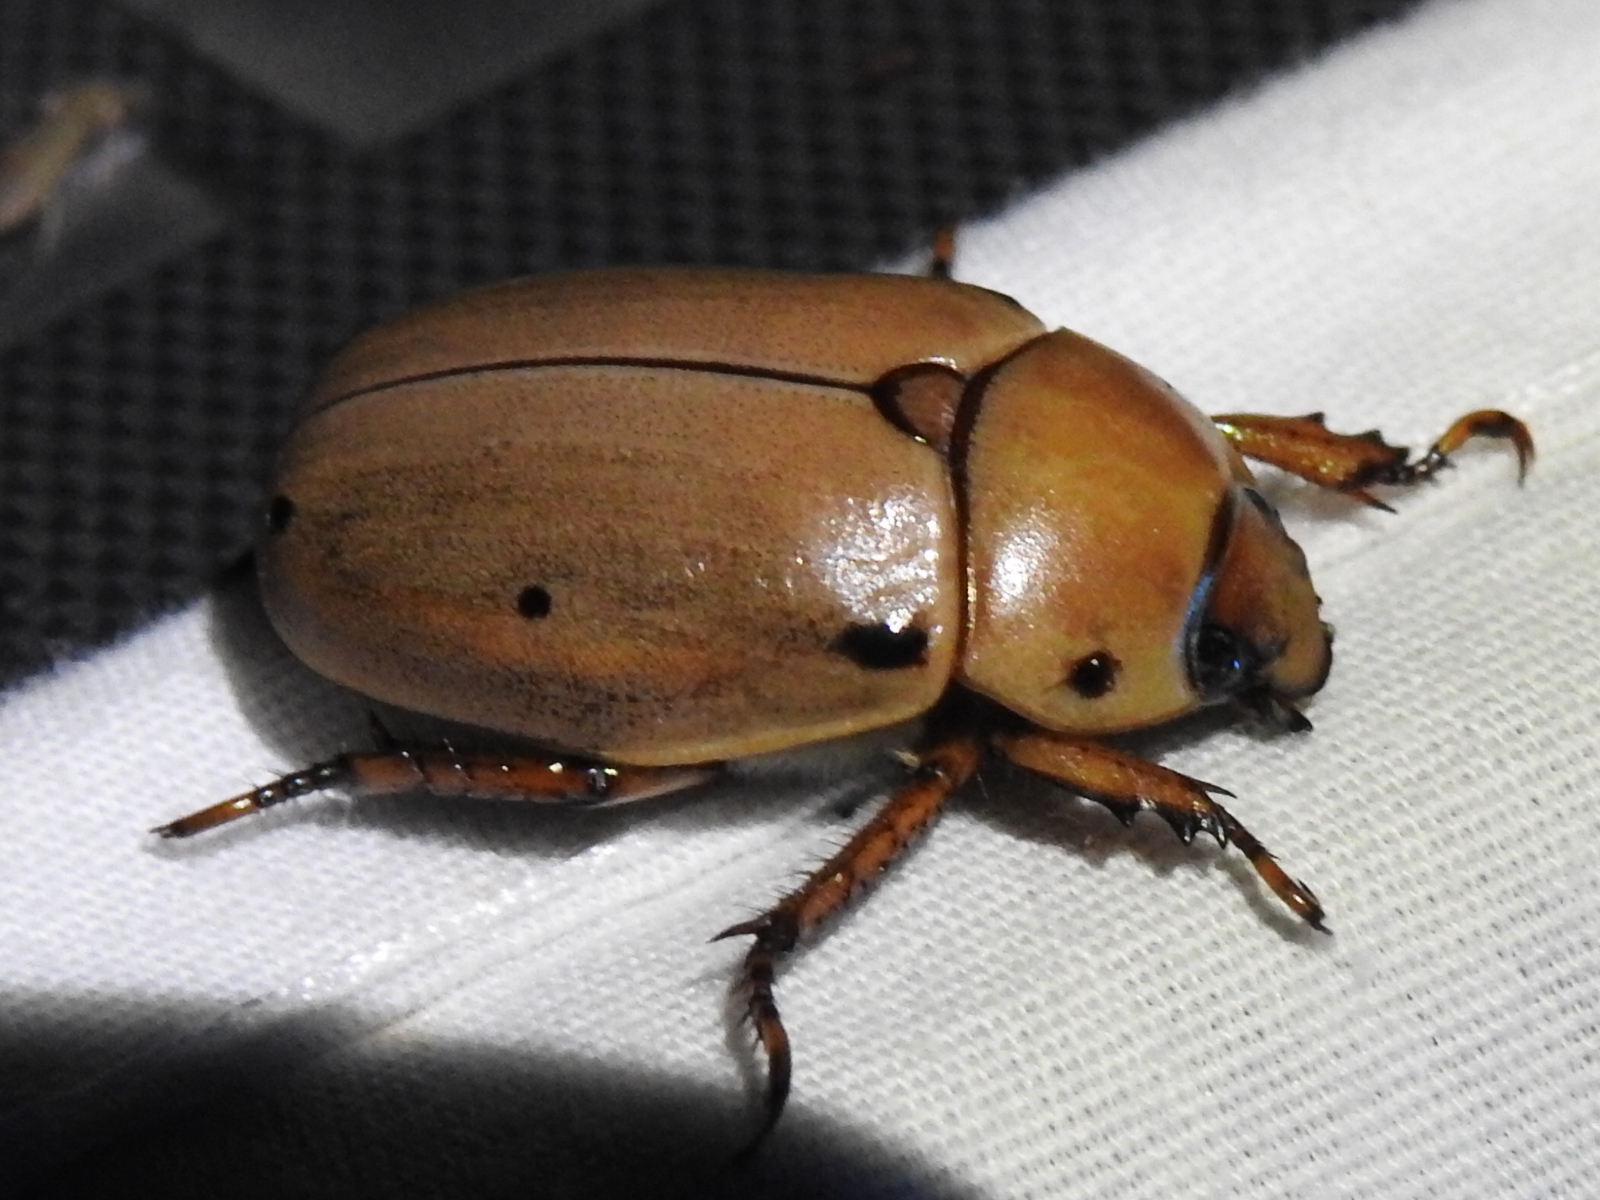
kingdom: Animalia
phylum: Arthropoda
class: Insecta
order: Coleoptera
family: Scarabaeidae
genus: Pelidnota
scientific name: Pelidnota punctata
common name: Grapevine beetle
